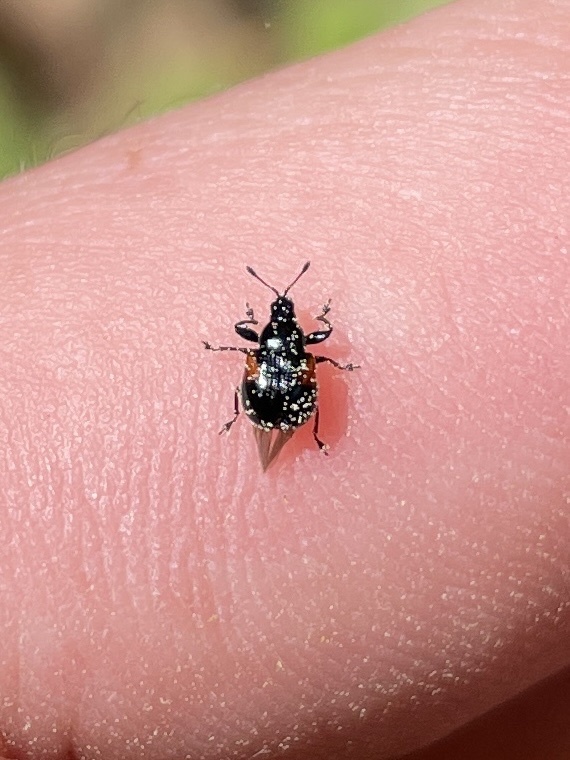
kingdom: Animalia
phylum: Arthropoda
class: Insecta
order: Coleoptera
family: Attelabidae
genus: Attelabus
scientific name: Attelabus bipustulatus
